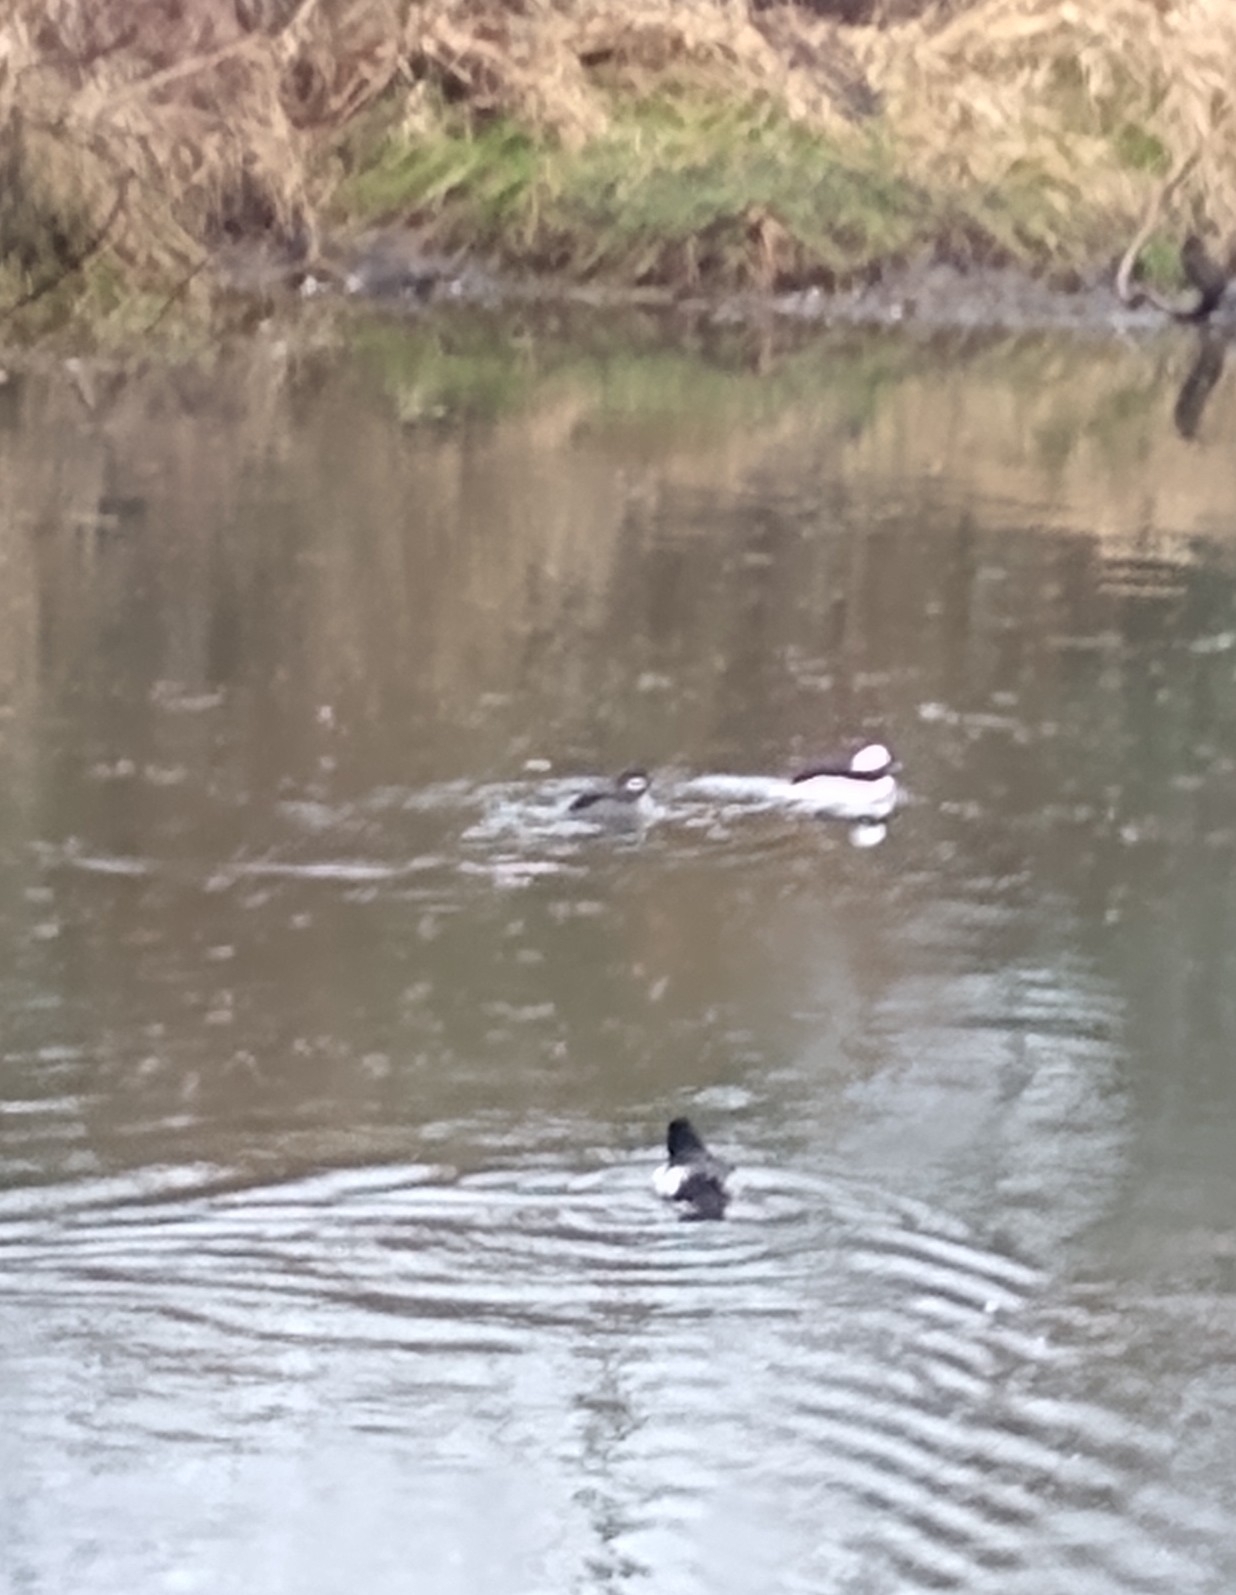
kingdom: Animalia
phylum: Chordata
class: Aves
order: Anseriformes
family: Anatidae
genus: Bucephala
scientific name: Bucephala albeola
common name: Bufflehead
